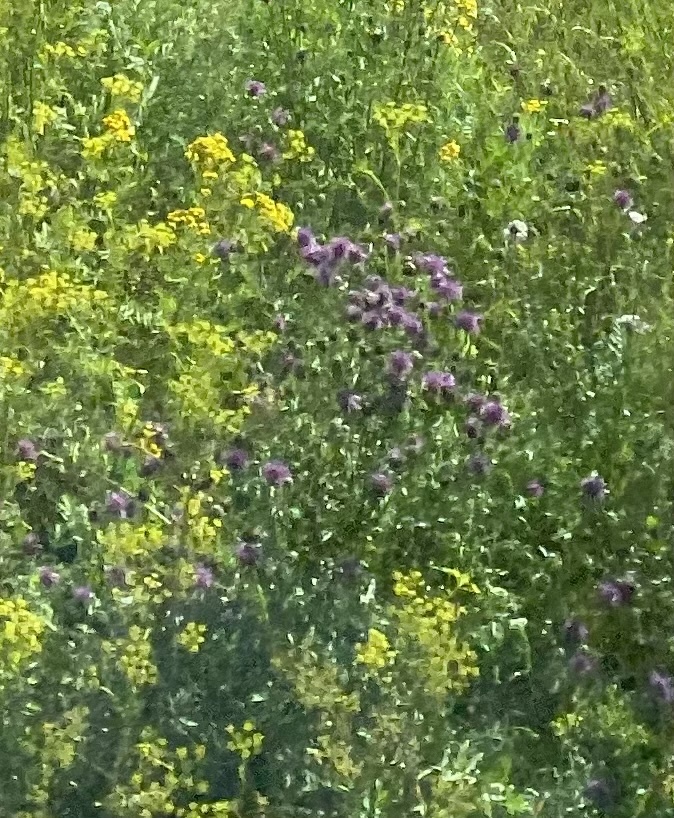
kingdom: Plantae
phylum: Tracheophyta
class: Magnoliopsida
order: Asterales
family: Asteraceae
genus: Cirsium
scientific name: Cirsium arvense
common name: Creeping thistle
